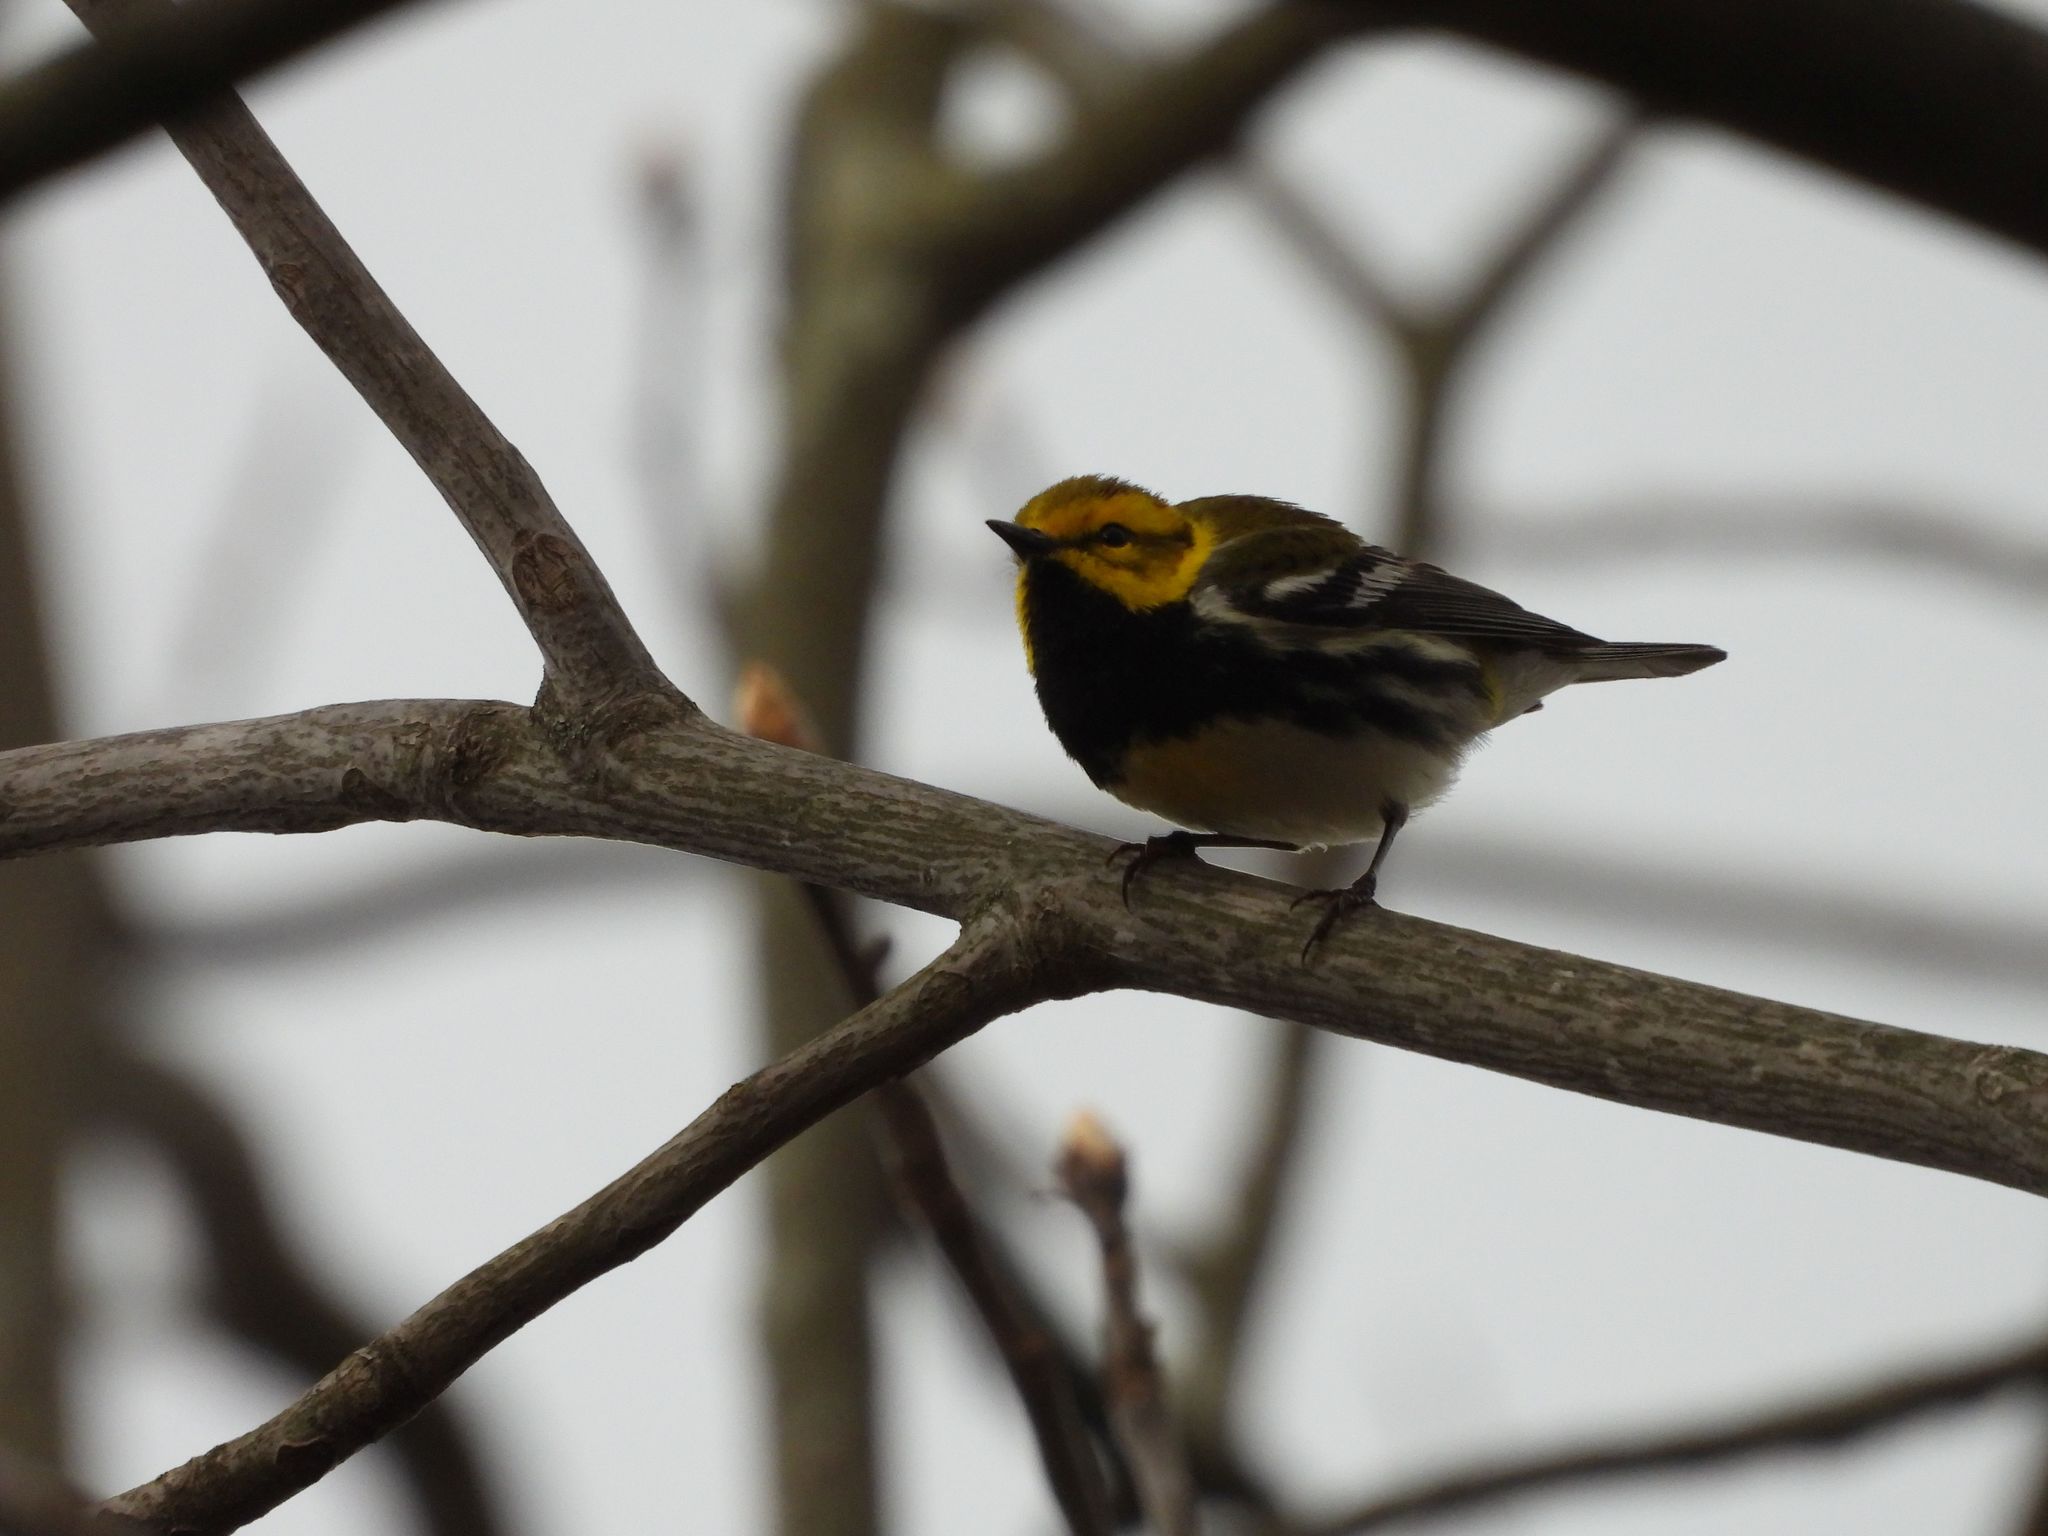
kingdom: Animalia
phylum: Chordata
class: Aves
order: Passeriformes
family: Parulidae
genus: Setophaga
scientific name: Setophaga virens
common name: Black-throated green warbler
